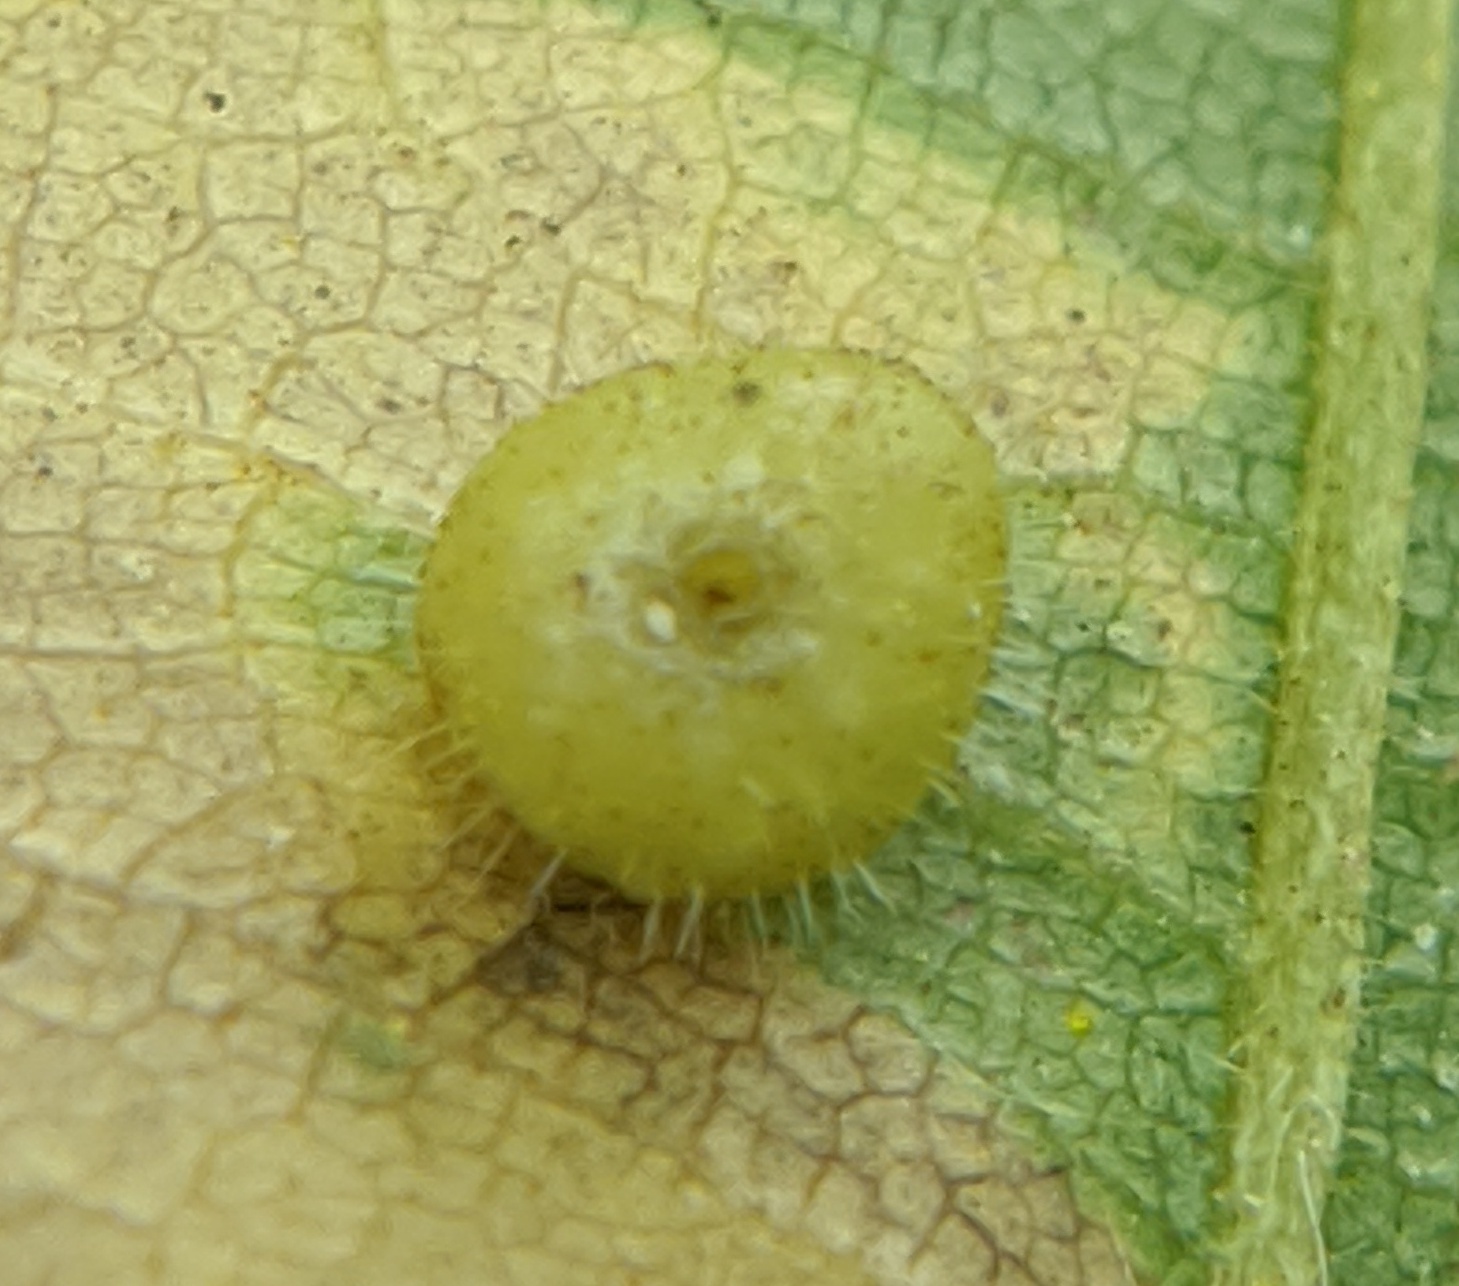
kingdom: Animalia
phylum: Arthropoda
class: Insecta
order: Diptera
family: Cecidomyiidae
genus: Caryomyia
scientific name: Caryomyia thompsoni
